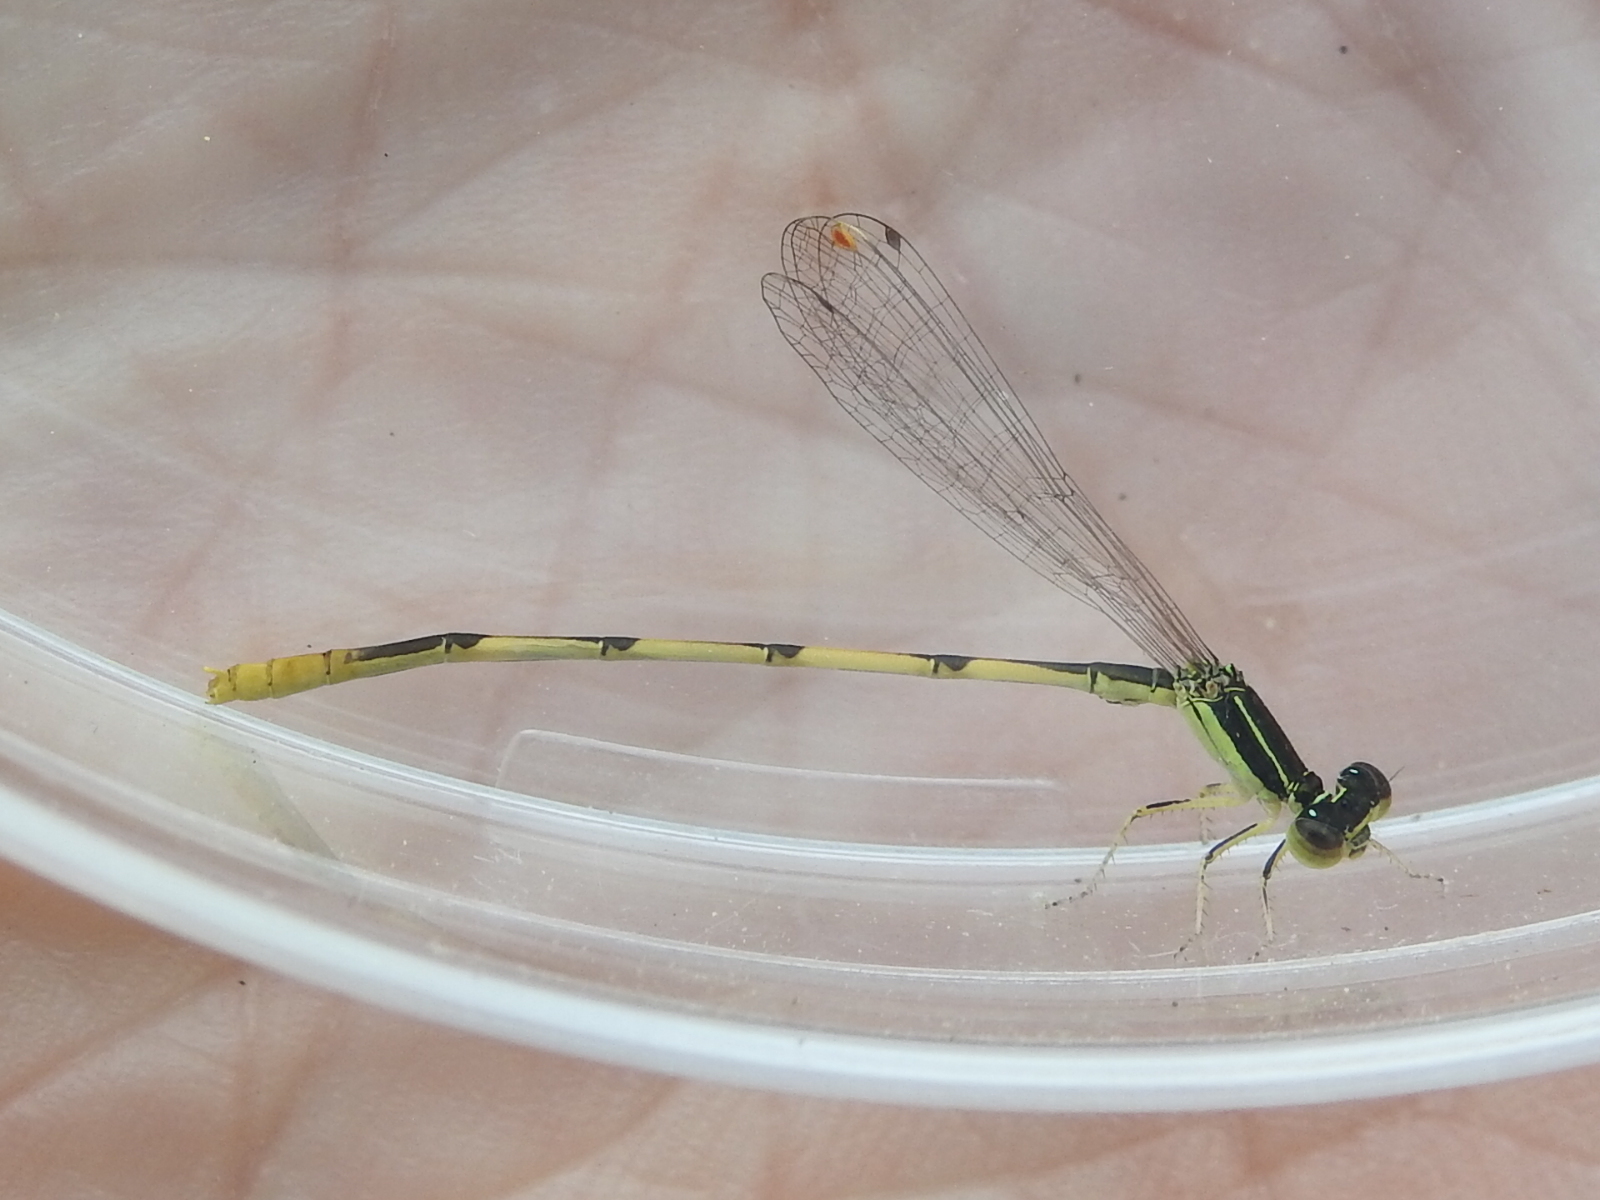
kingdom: Animalia
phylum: Arthropoda
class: Insecta
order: Odonata
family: Coenagrionidae
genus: Ischnura
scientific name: Ischnura hastata
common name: Citrine forktail
